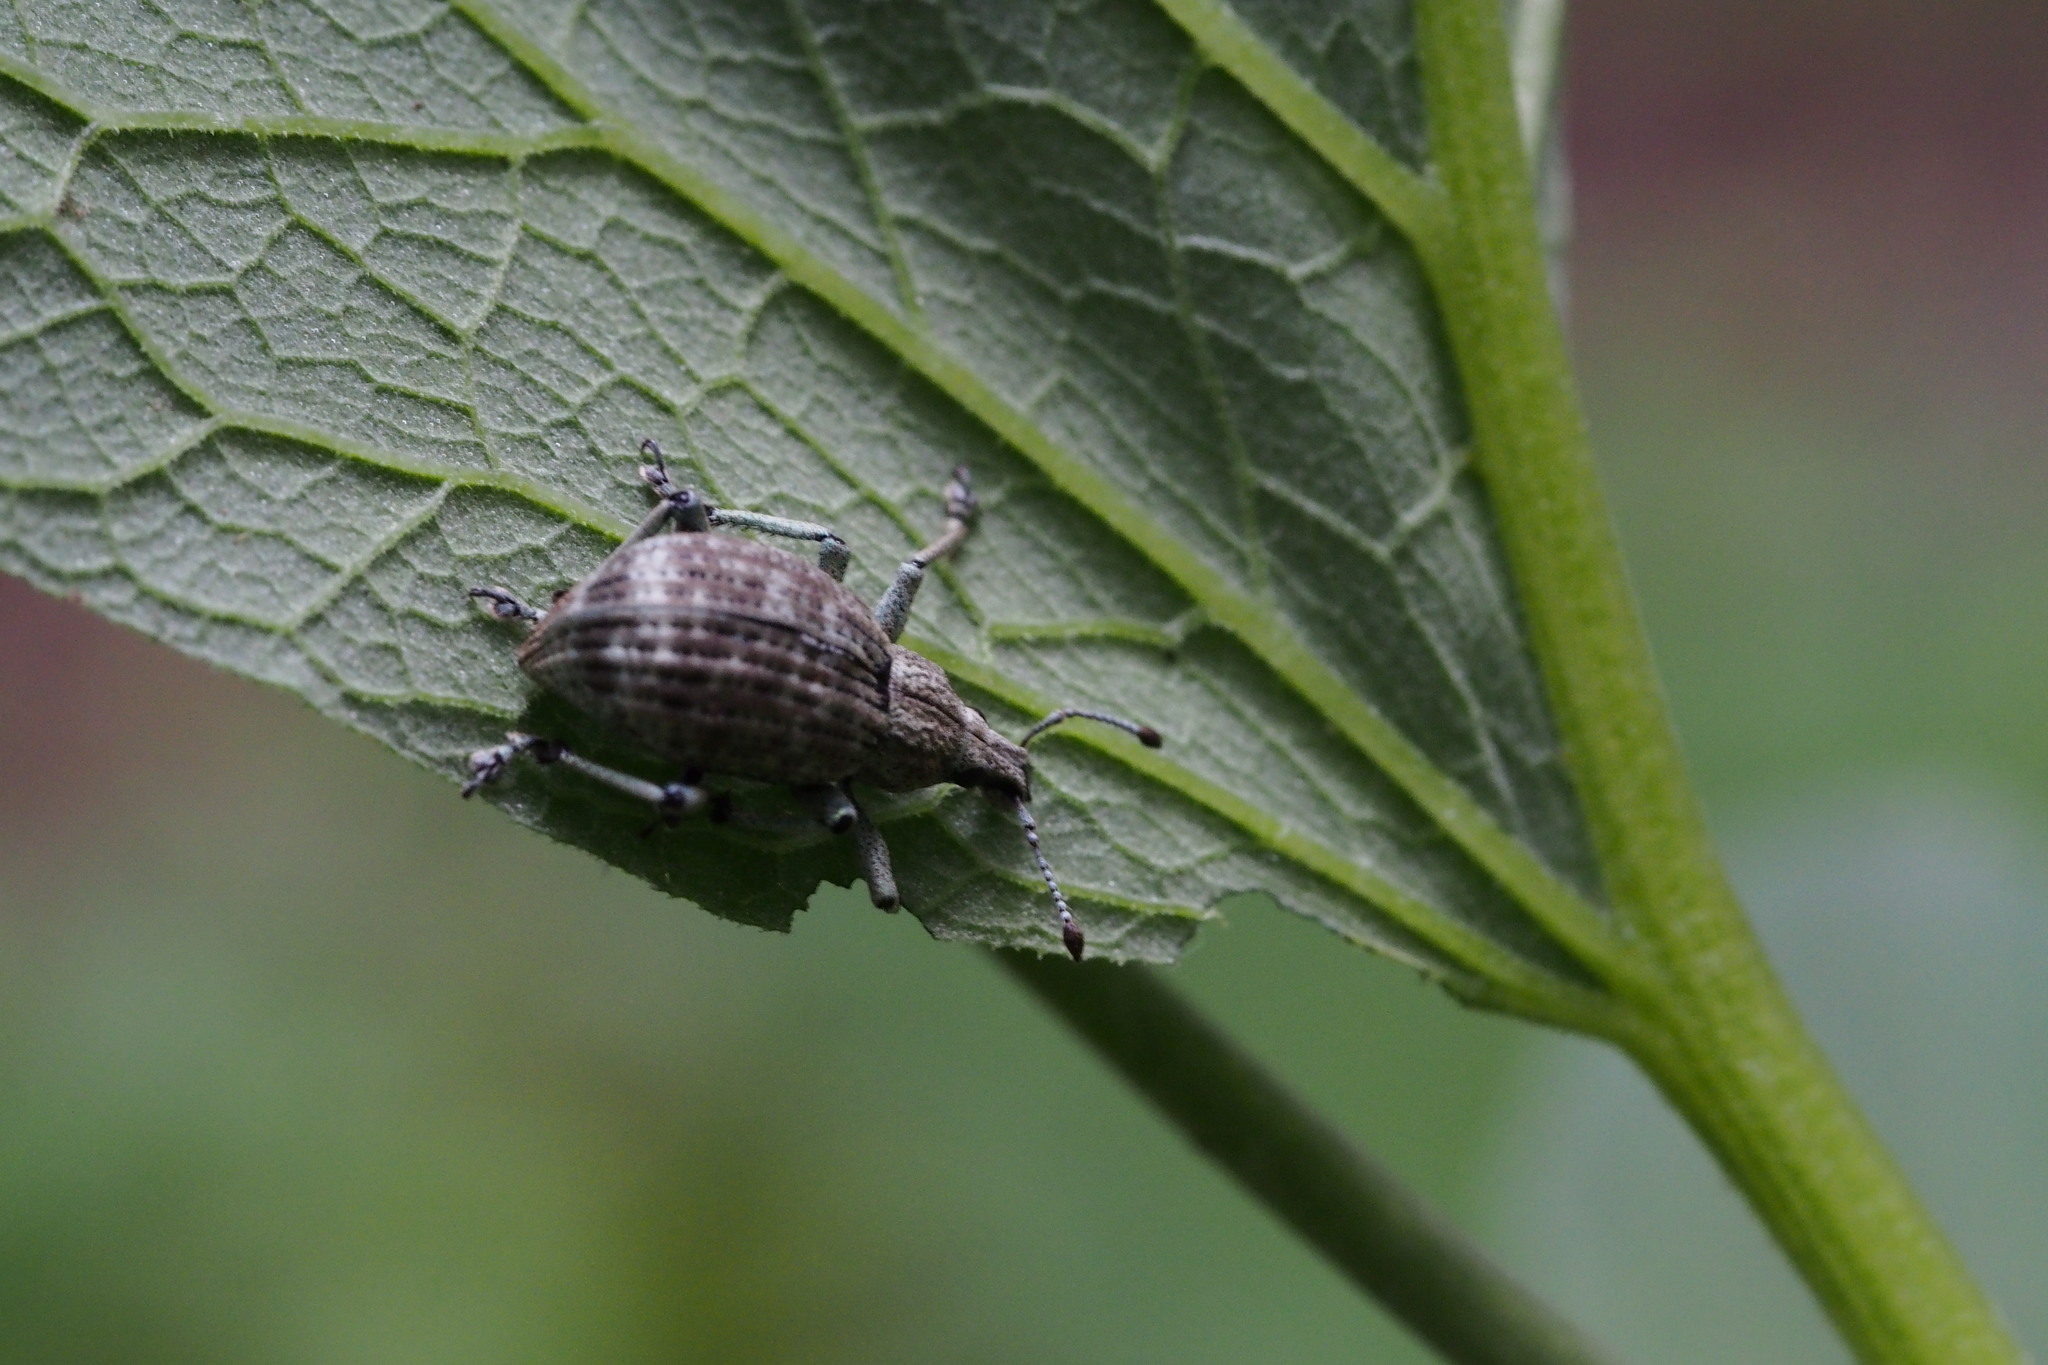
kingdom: Animalia
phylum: Arthropoda
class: Insecta
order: Coleoptera
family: Curculionidae
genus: Catapionus
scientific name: Catapionus gracilicornis
